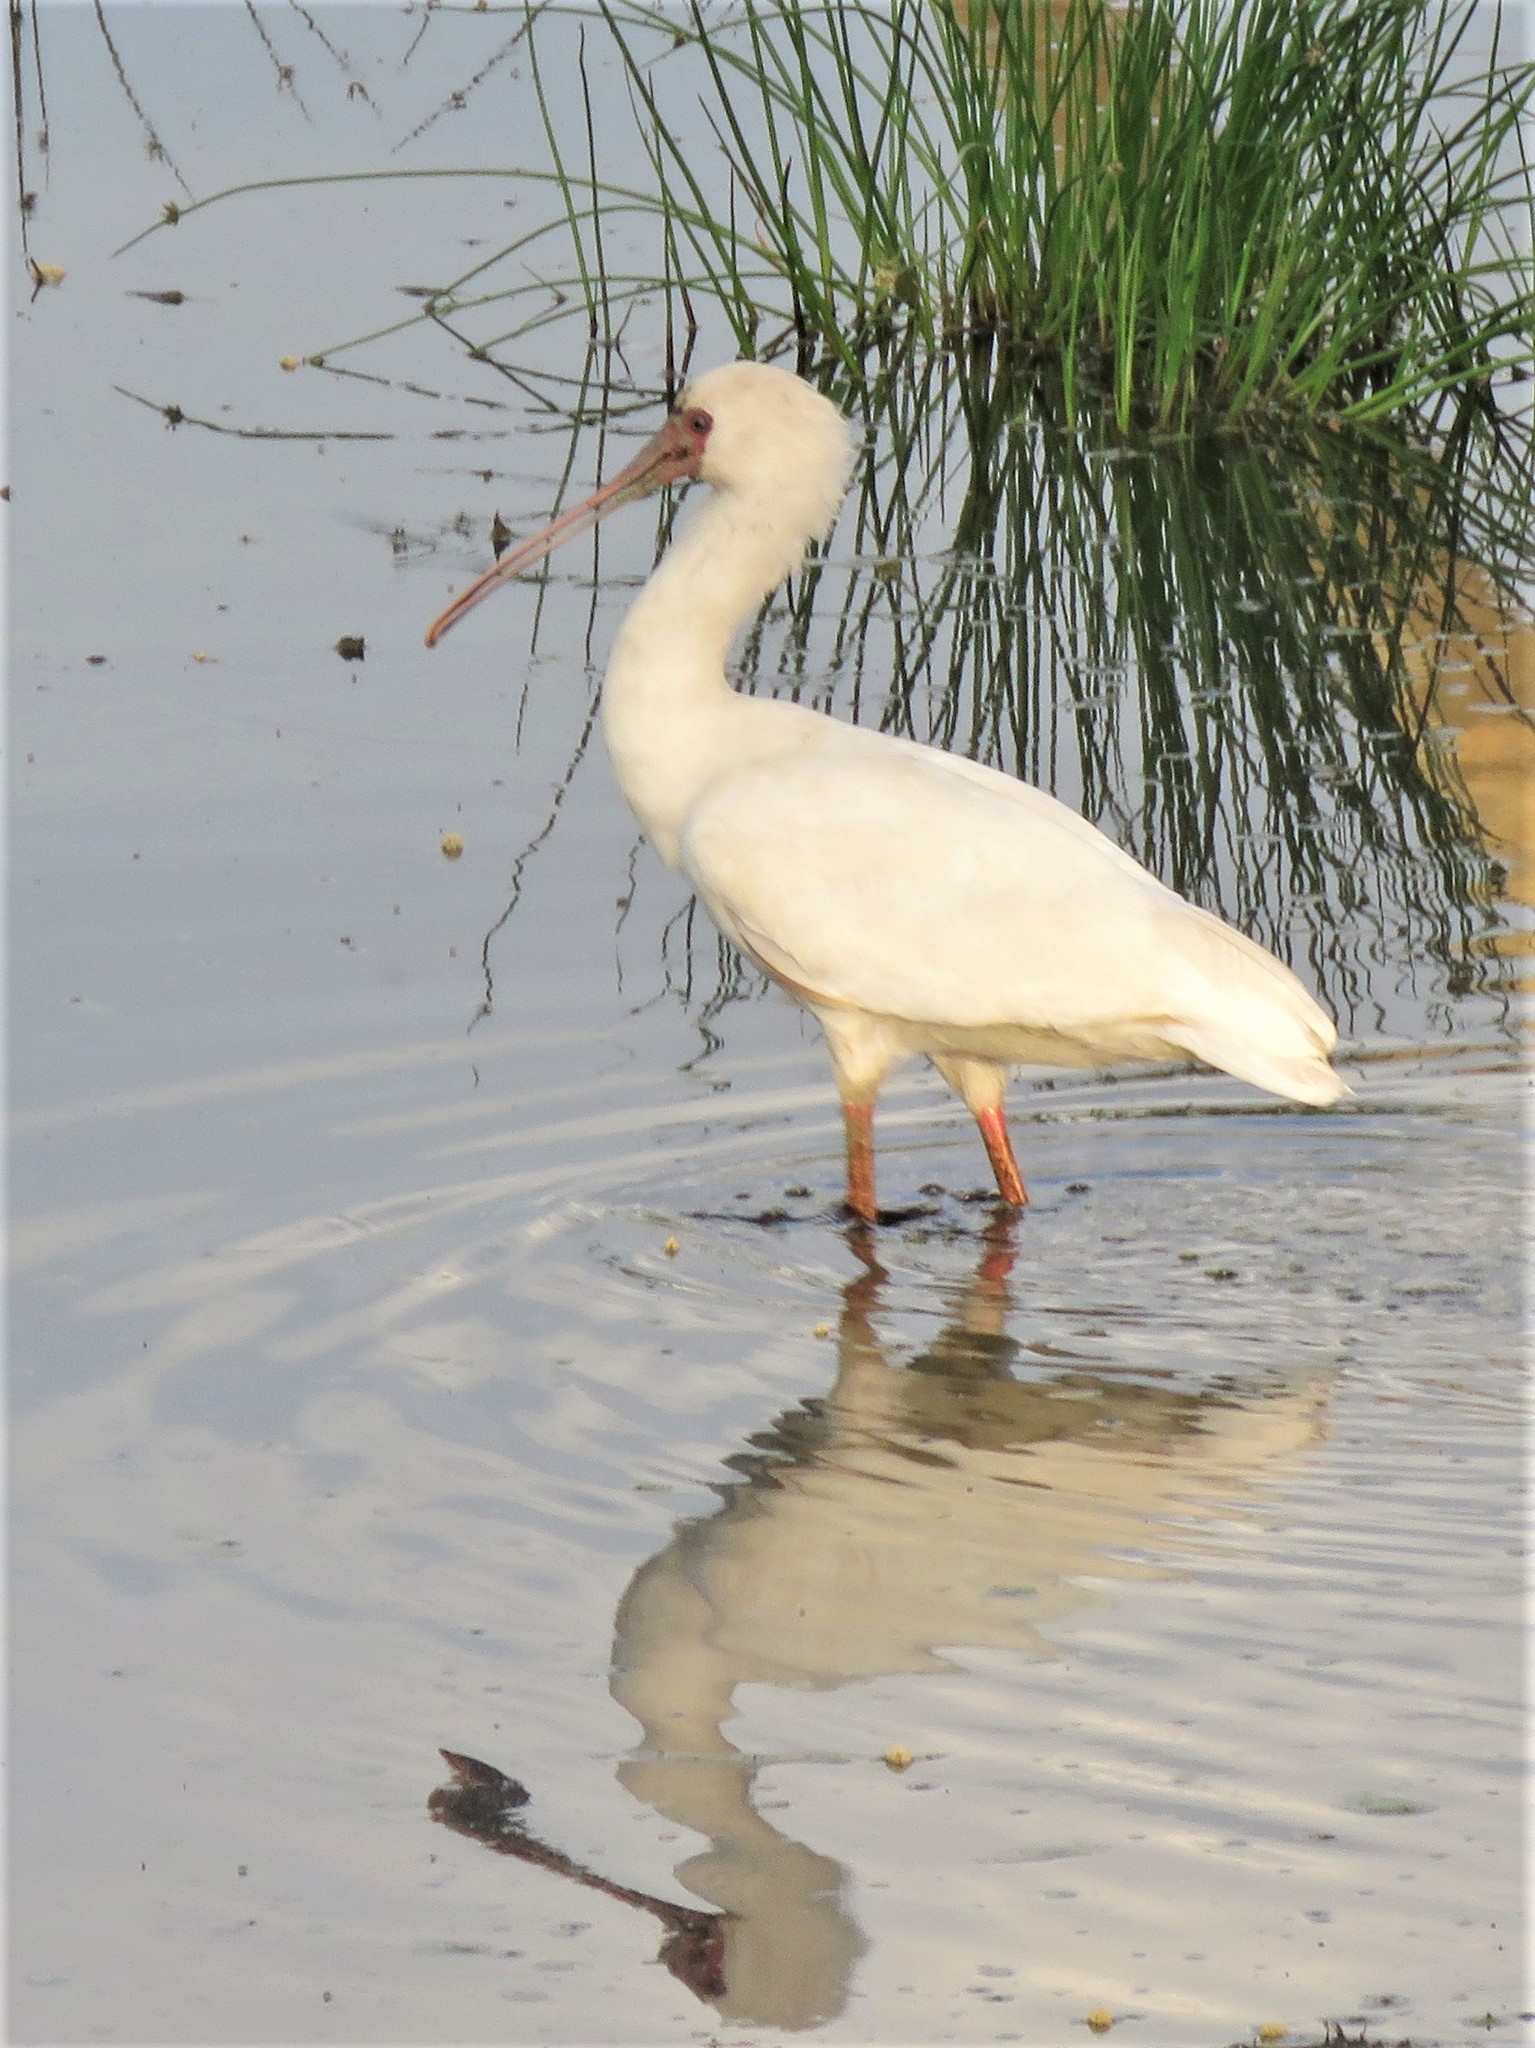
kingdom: Animalia
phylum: Chordata
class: Aves
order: Pelecaniformes
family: Threskiornithidae
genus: Platalea
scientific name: Platalea alba
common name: African spoonbill
